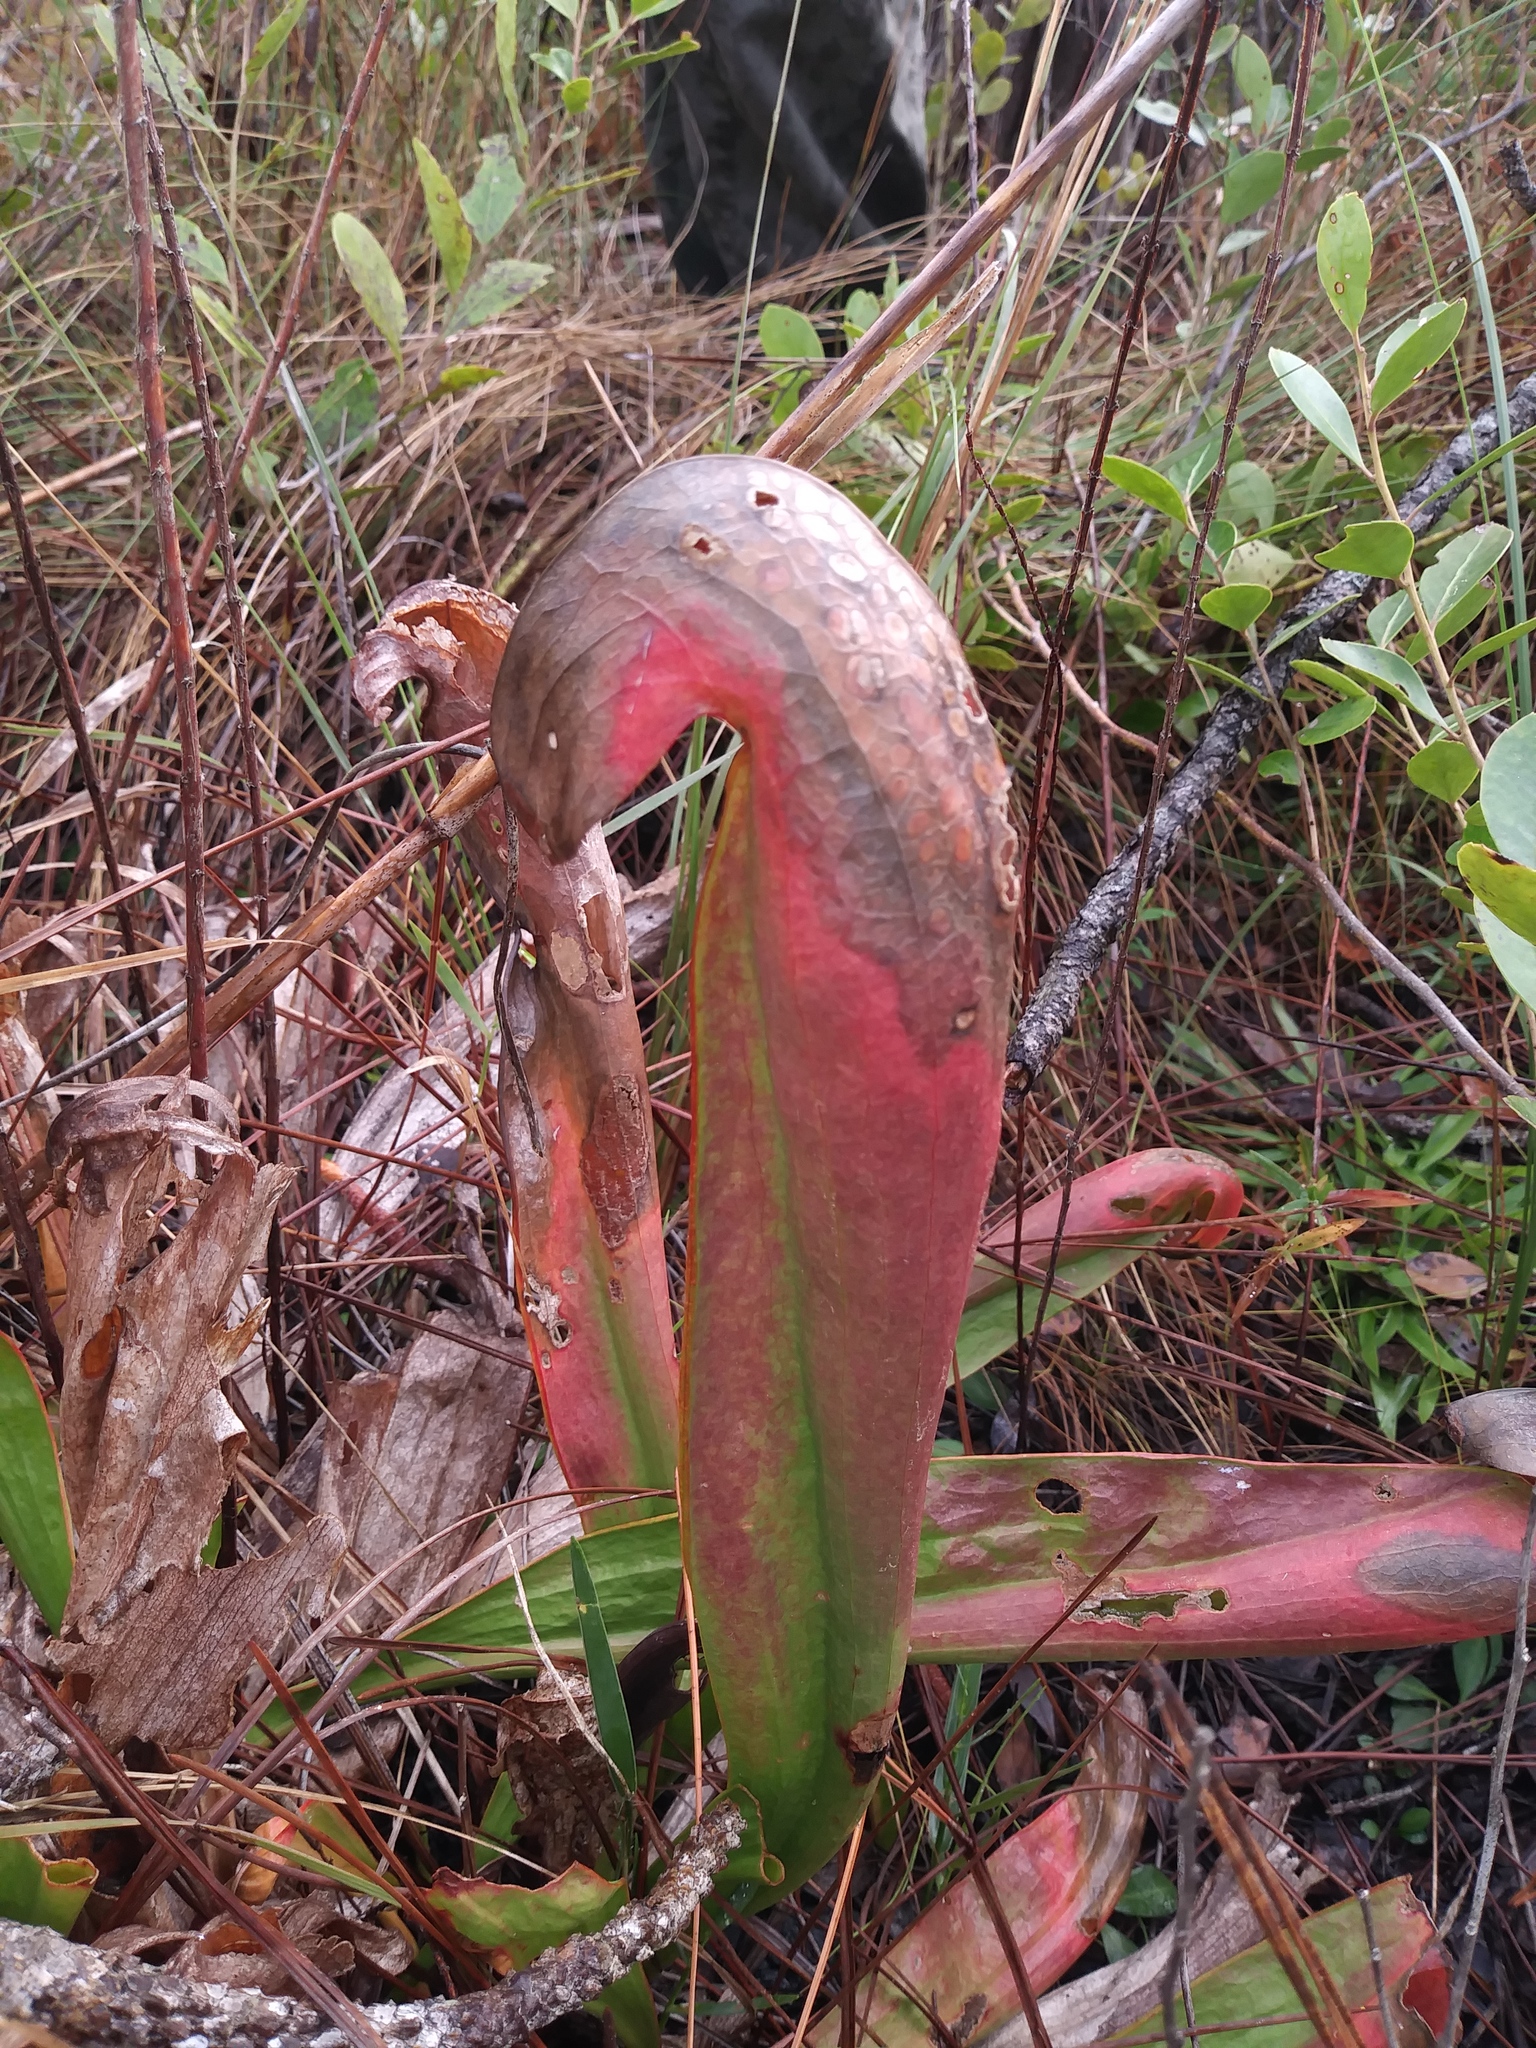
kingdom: Plantae
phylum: Tracheophyta
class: Magnoliopsida
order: Ericales
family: Sarraceniaceae
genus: Sarracenia
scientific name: Sarracenia minor
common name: Rainhat-trumpet
